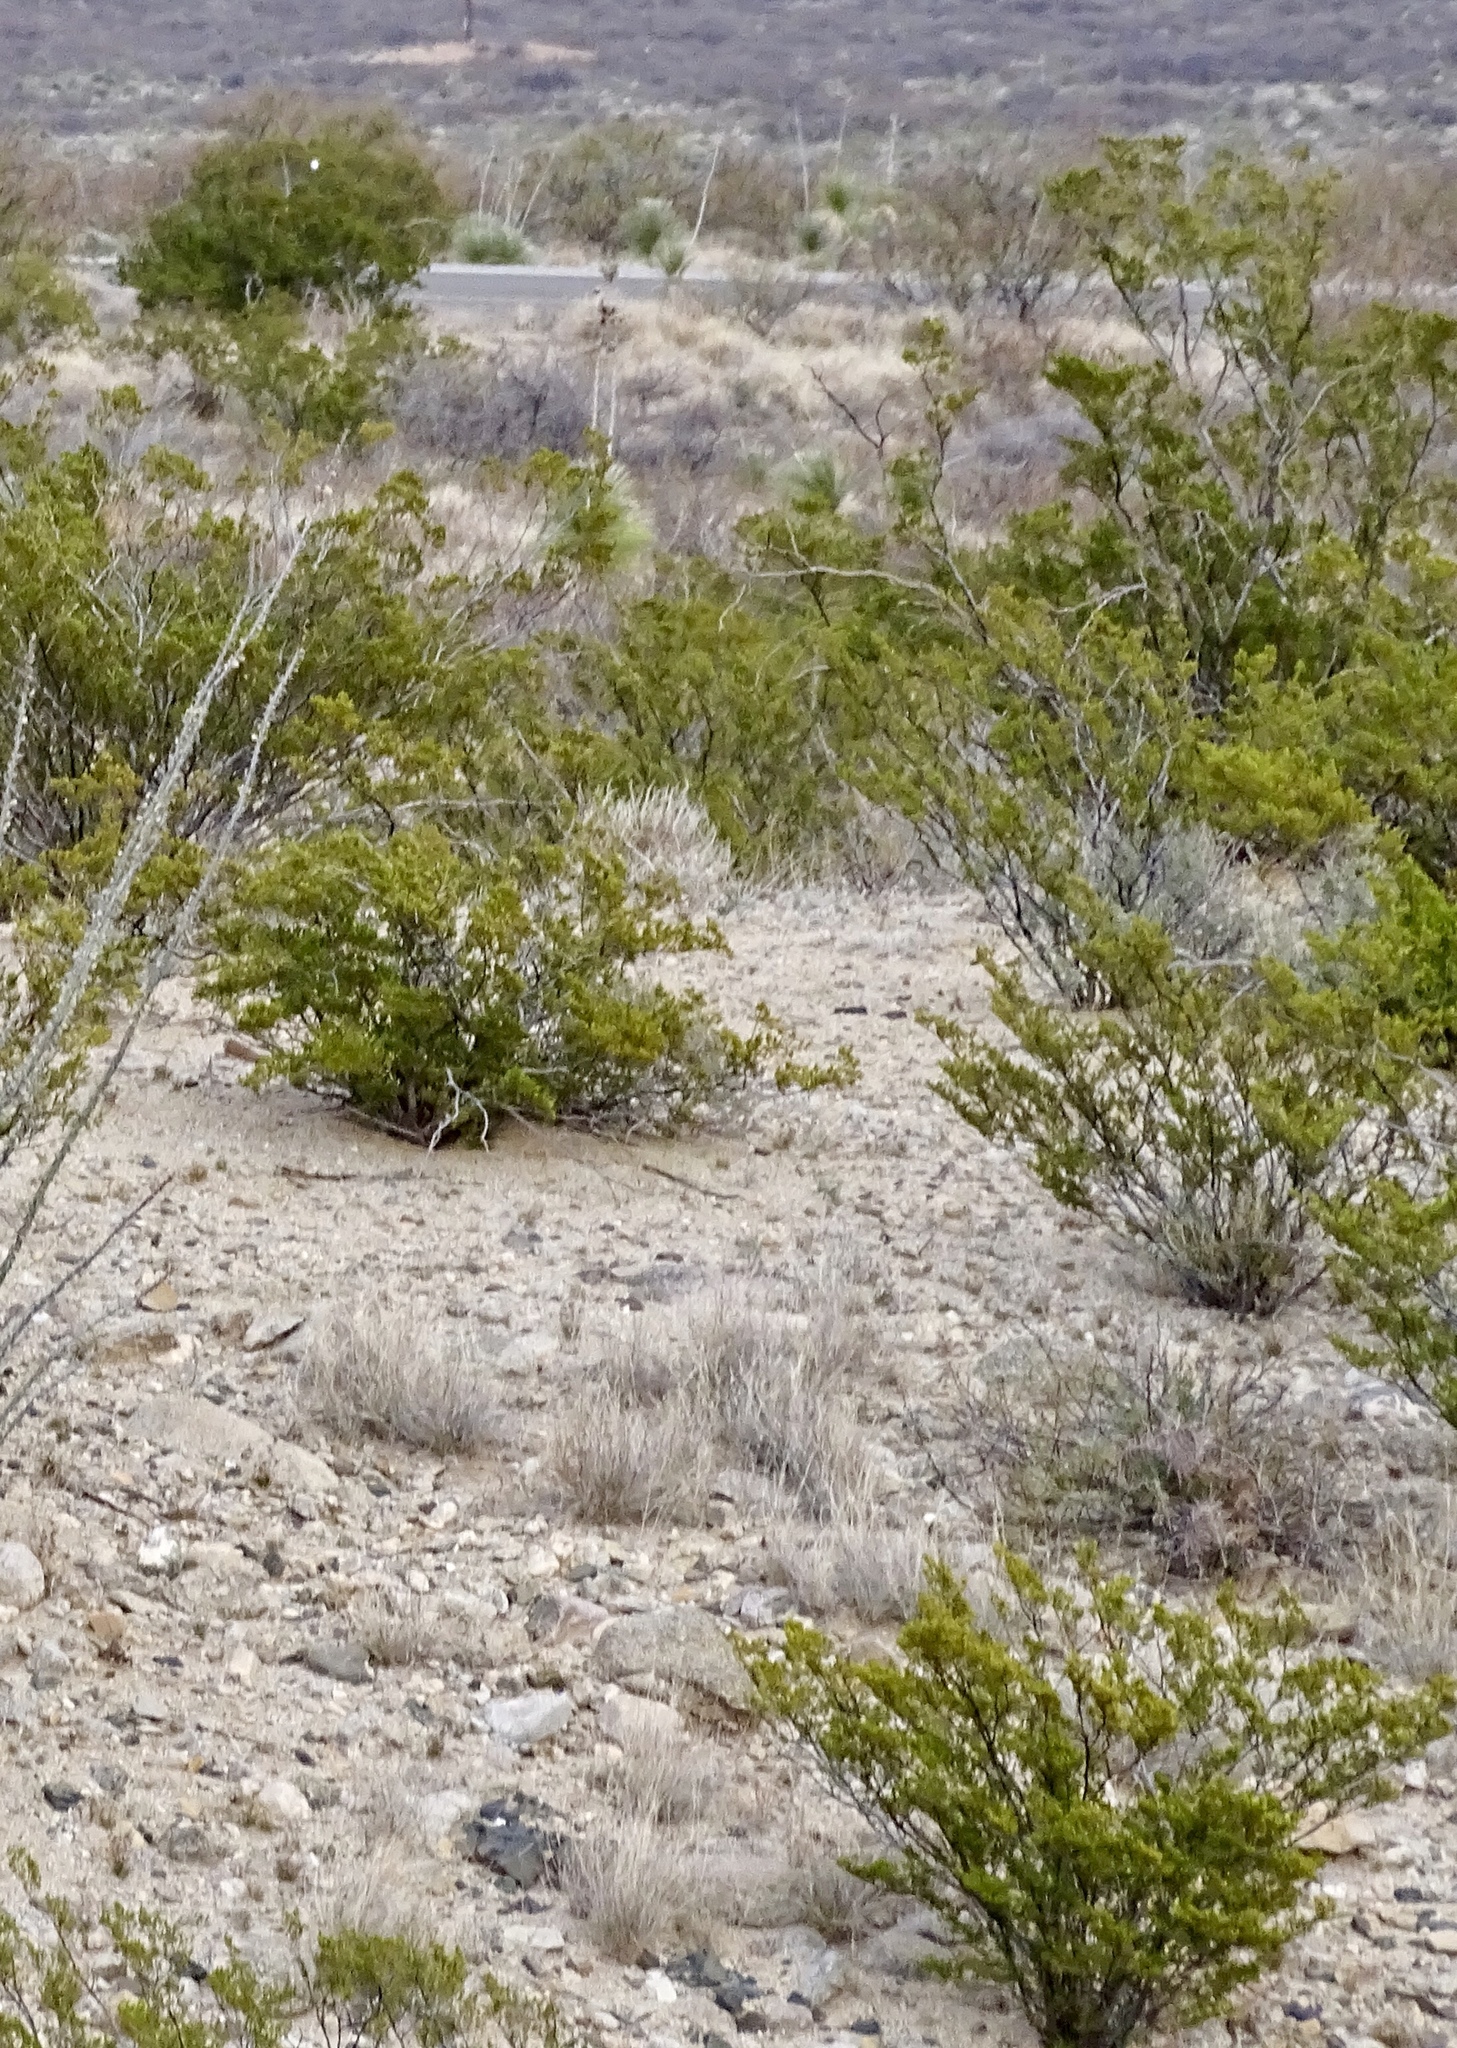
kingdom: Plantae
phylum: Tracheophyta
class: Magnoliopsida
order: Zygophyllales
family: Zygophyllaceae
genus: Larrea
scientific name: Larrea tridentata
